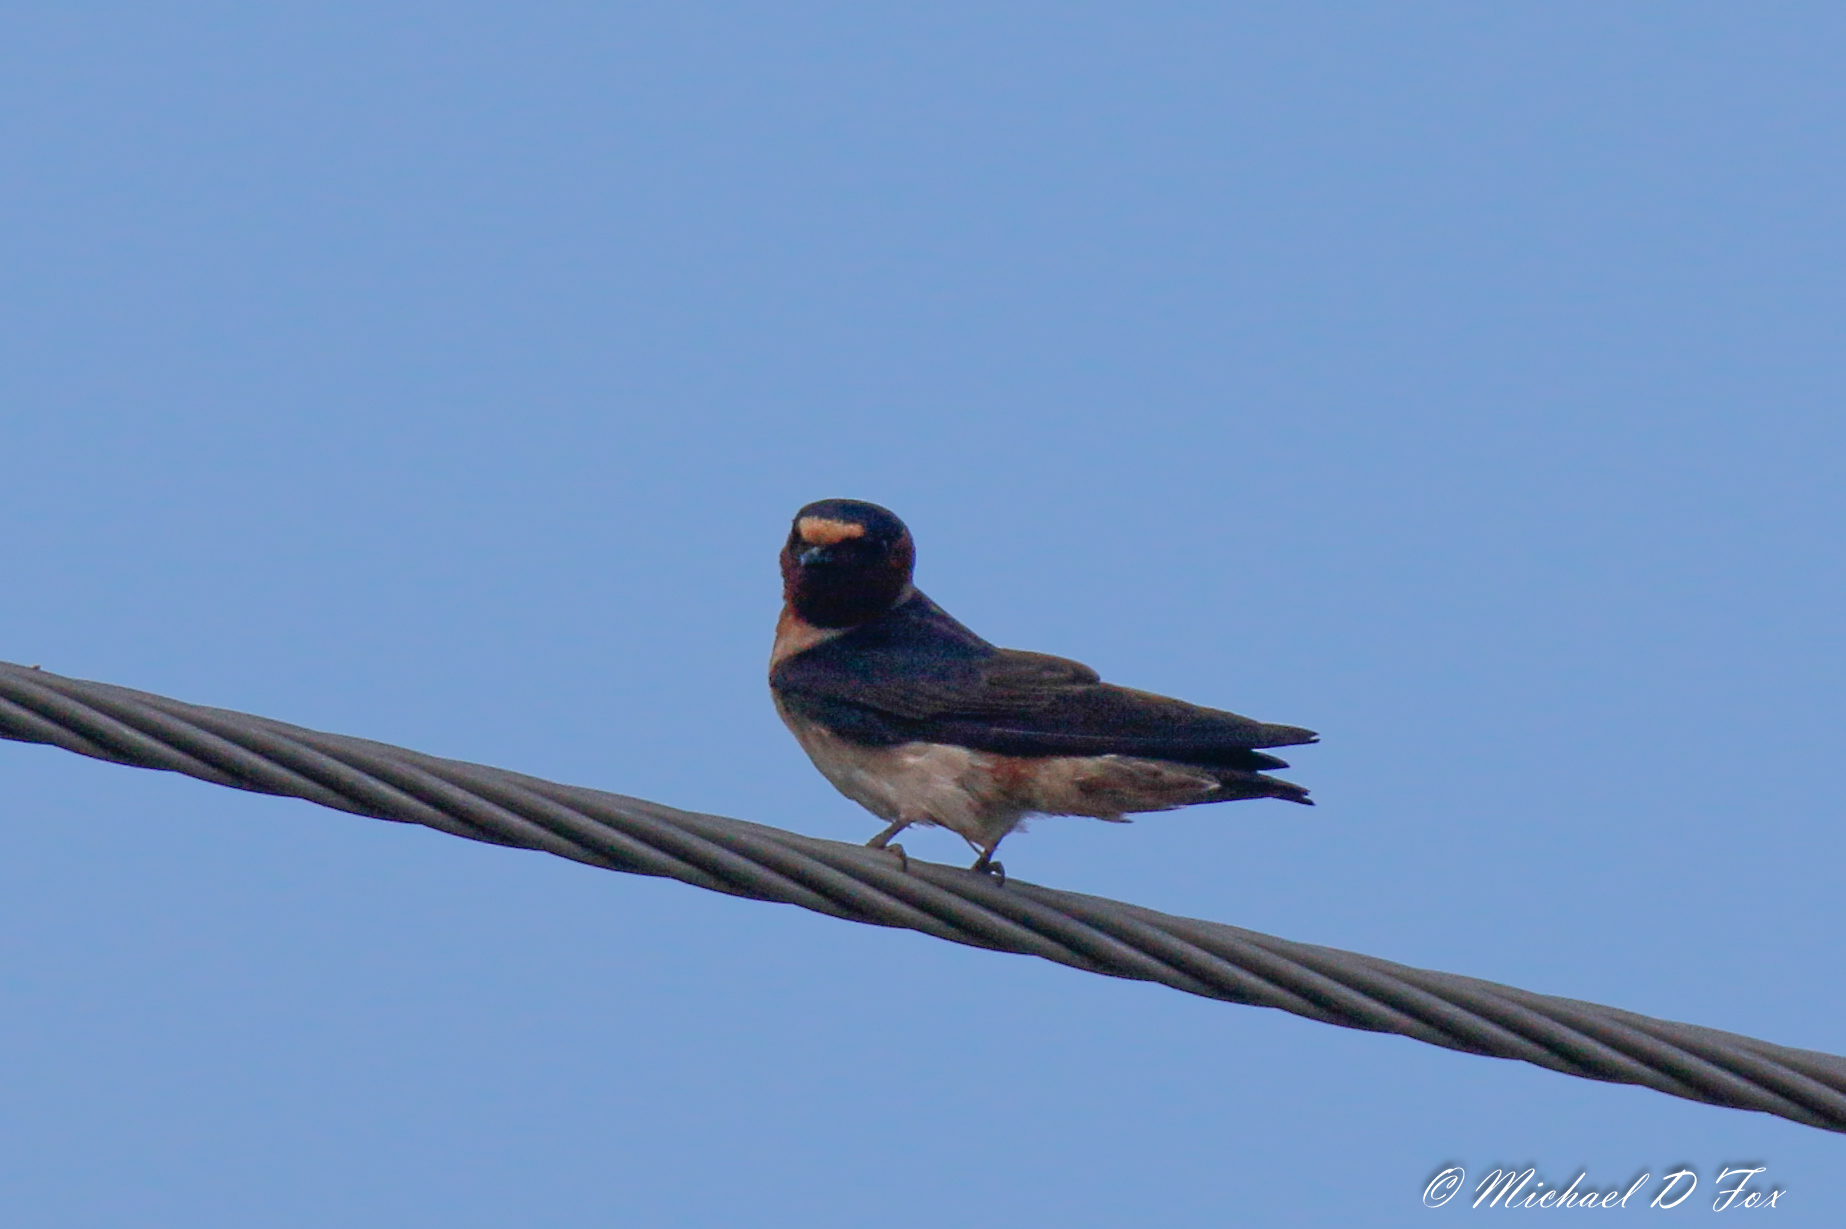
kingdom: Animalia
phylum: Chordata
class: Aves
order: Passeriformes
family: Hirundinidae
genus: Hirundo
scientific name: Hirundo rustica
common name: Barn swallow
